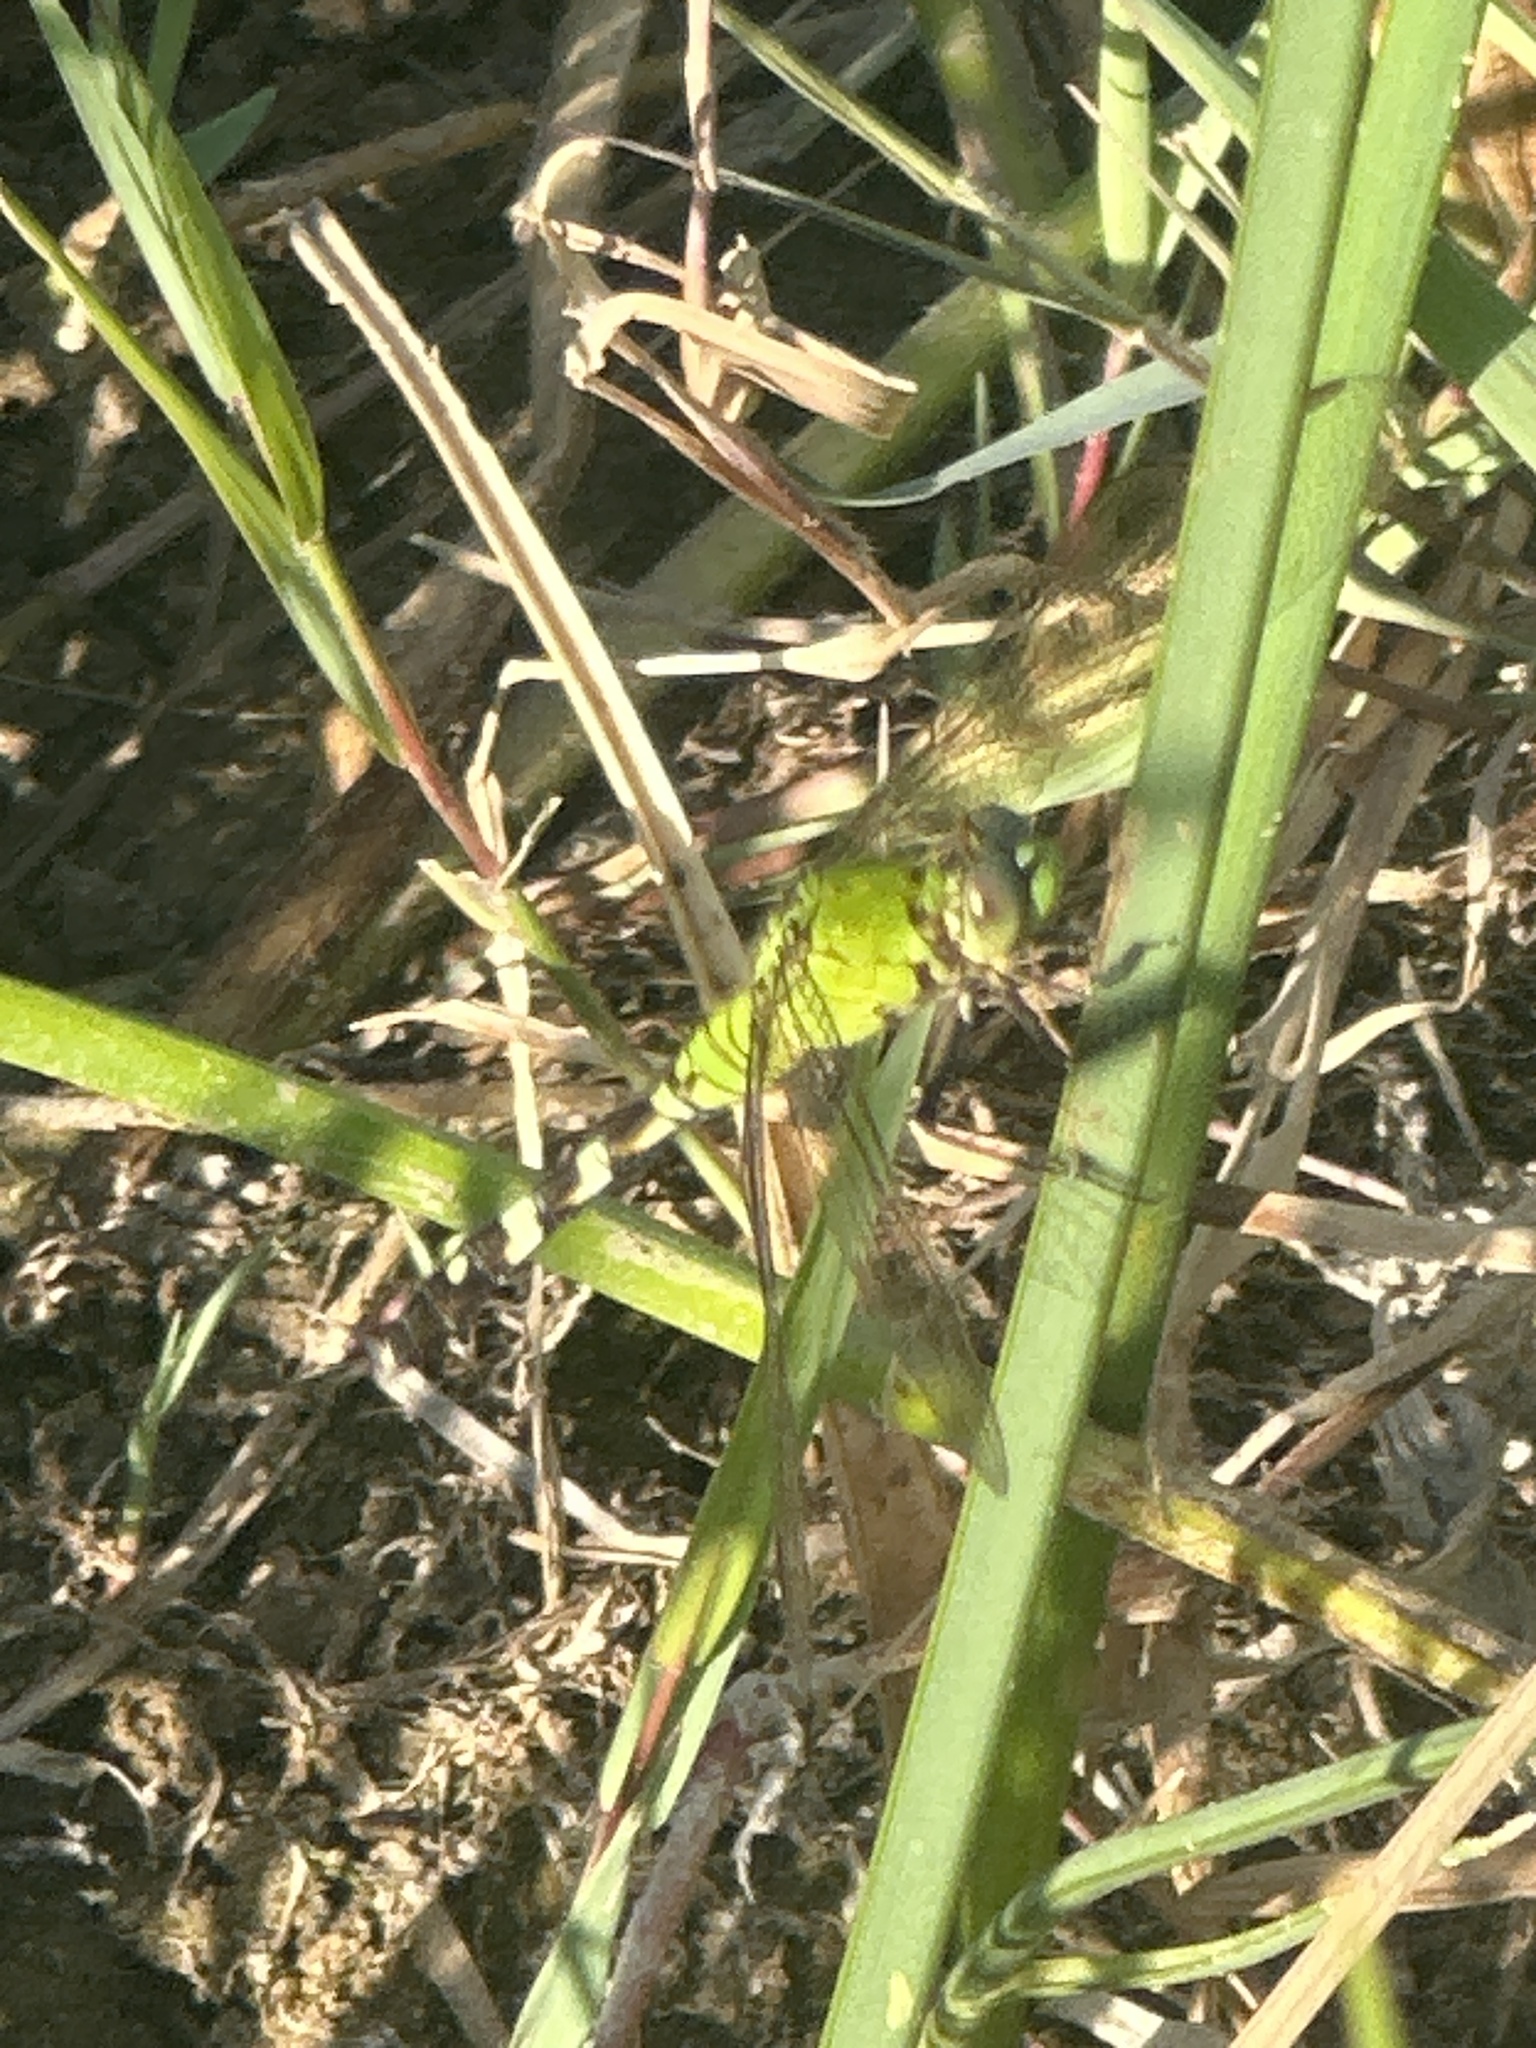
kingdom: Animalia
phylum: Arthropoda
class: Insecta
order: Odonata
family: Libellulidae
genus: Erythemis
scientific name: Erythemis simplicicollis
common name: Eastern pondhawk
